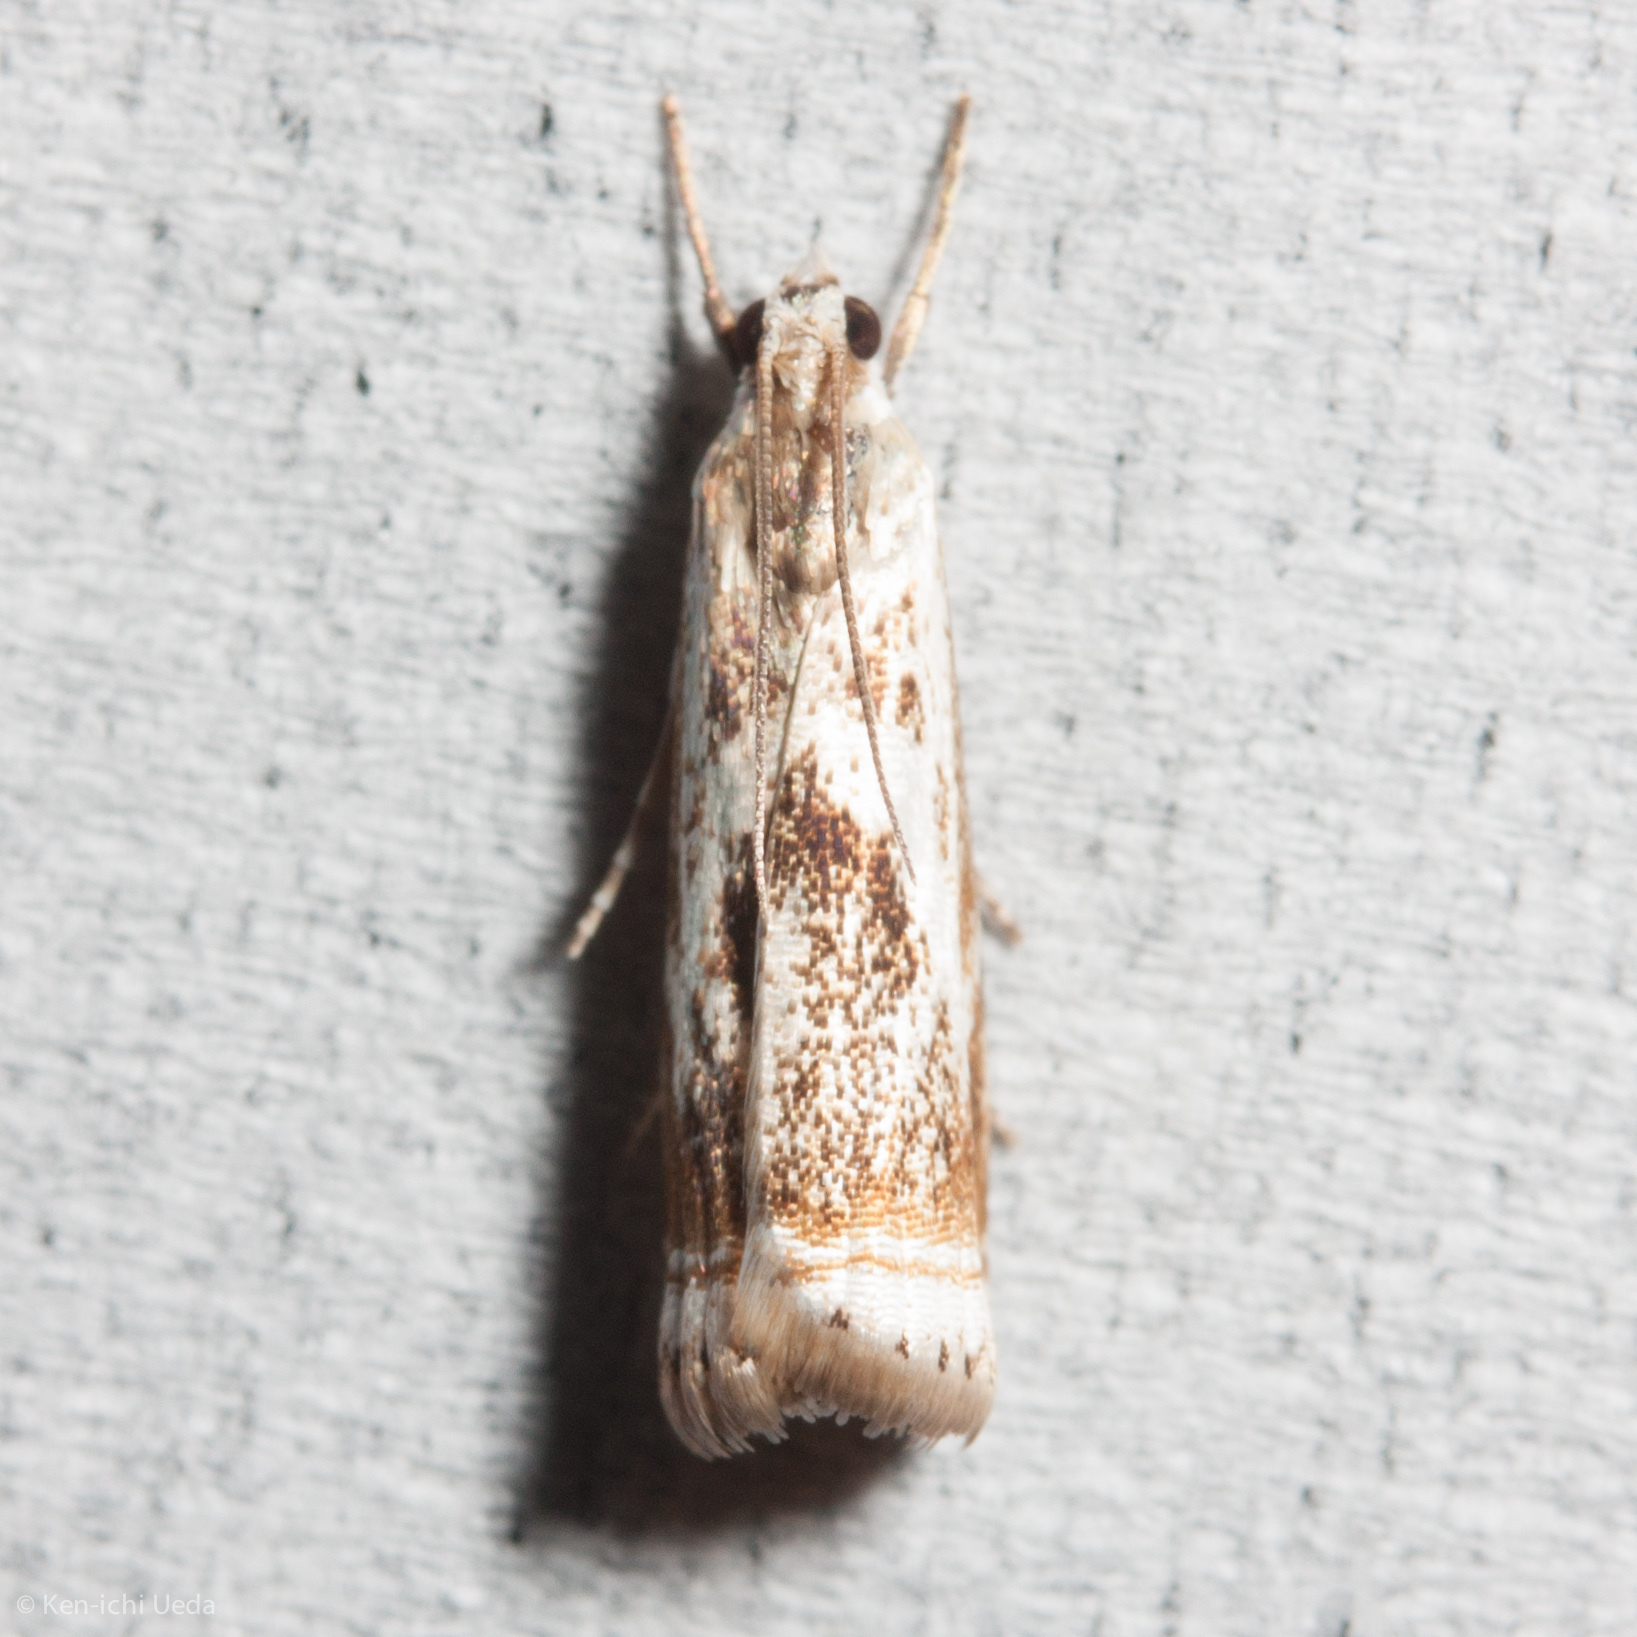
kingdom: Animalia
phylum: Arthropoda
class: Insecta
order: Lepidoptera
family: Crambidae
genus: Microcrambus
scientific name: Microcrambus elegans
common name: Elegant grass-veneer
